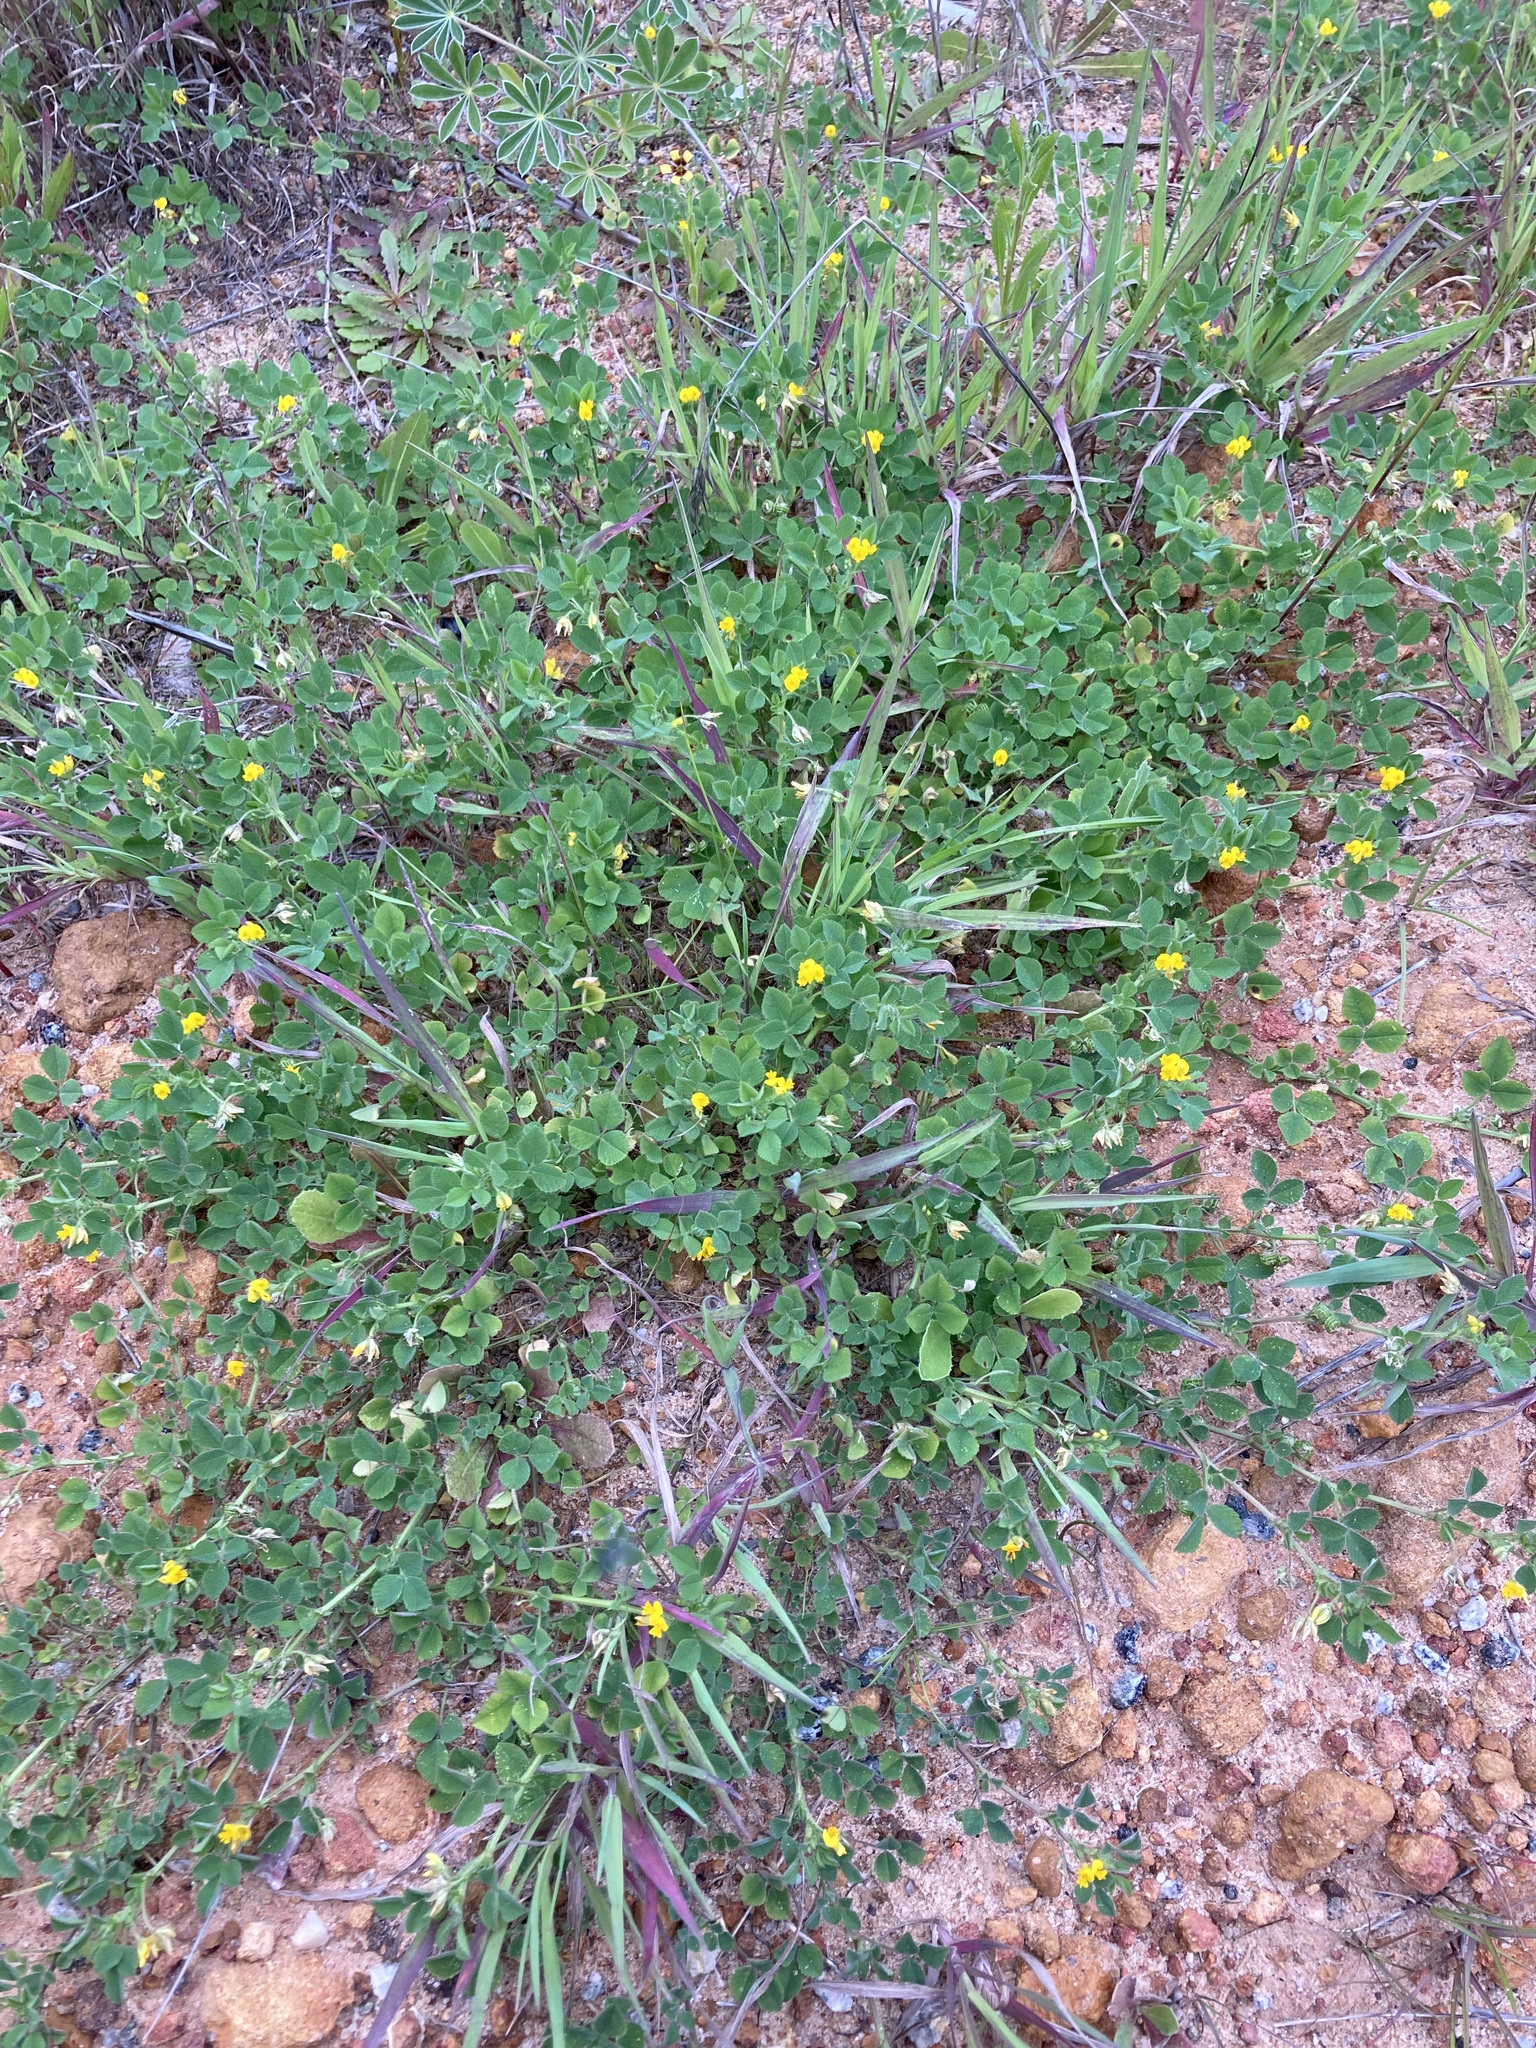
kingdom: Plantae
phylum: Tracheophyta
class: Magnoliopsida
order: Fabales
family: Fabaceae
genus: Medicago
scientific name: Medicago truncatula
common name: Strong-spined medick
